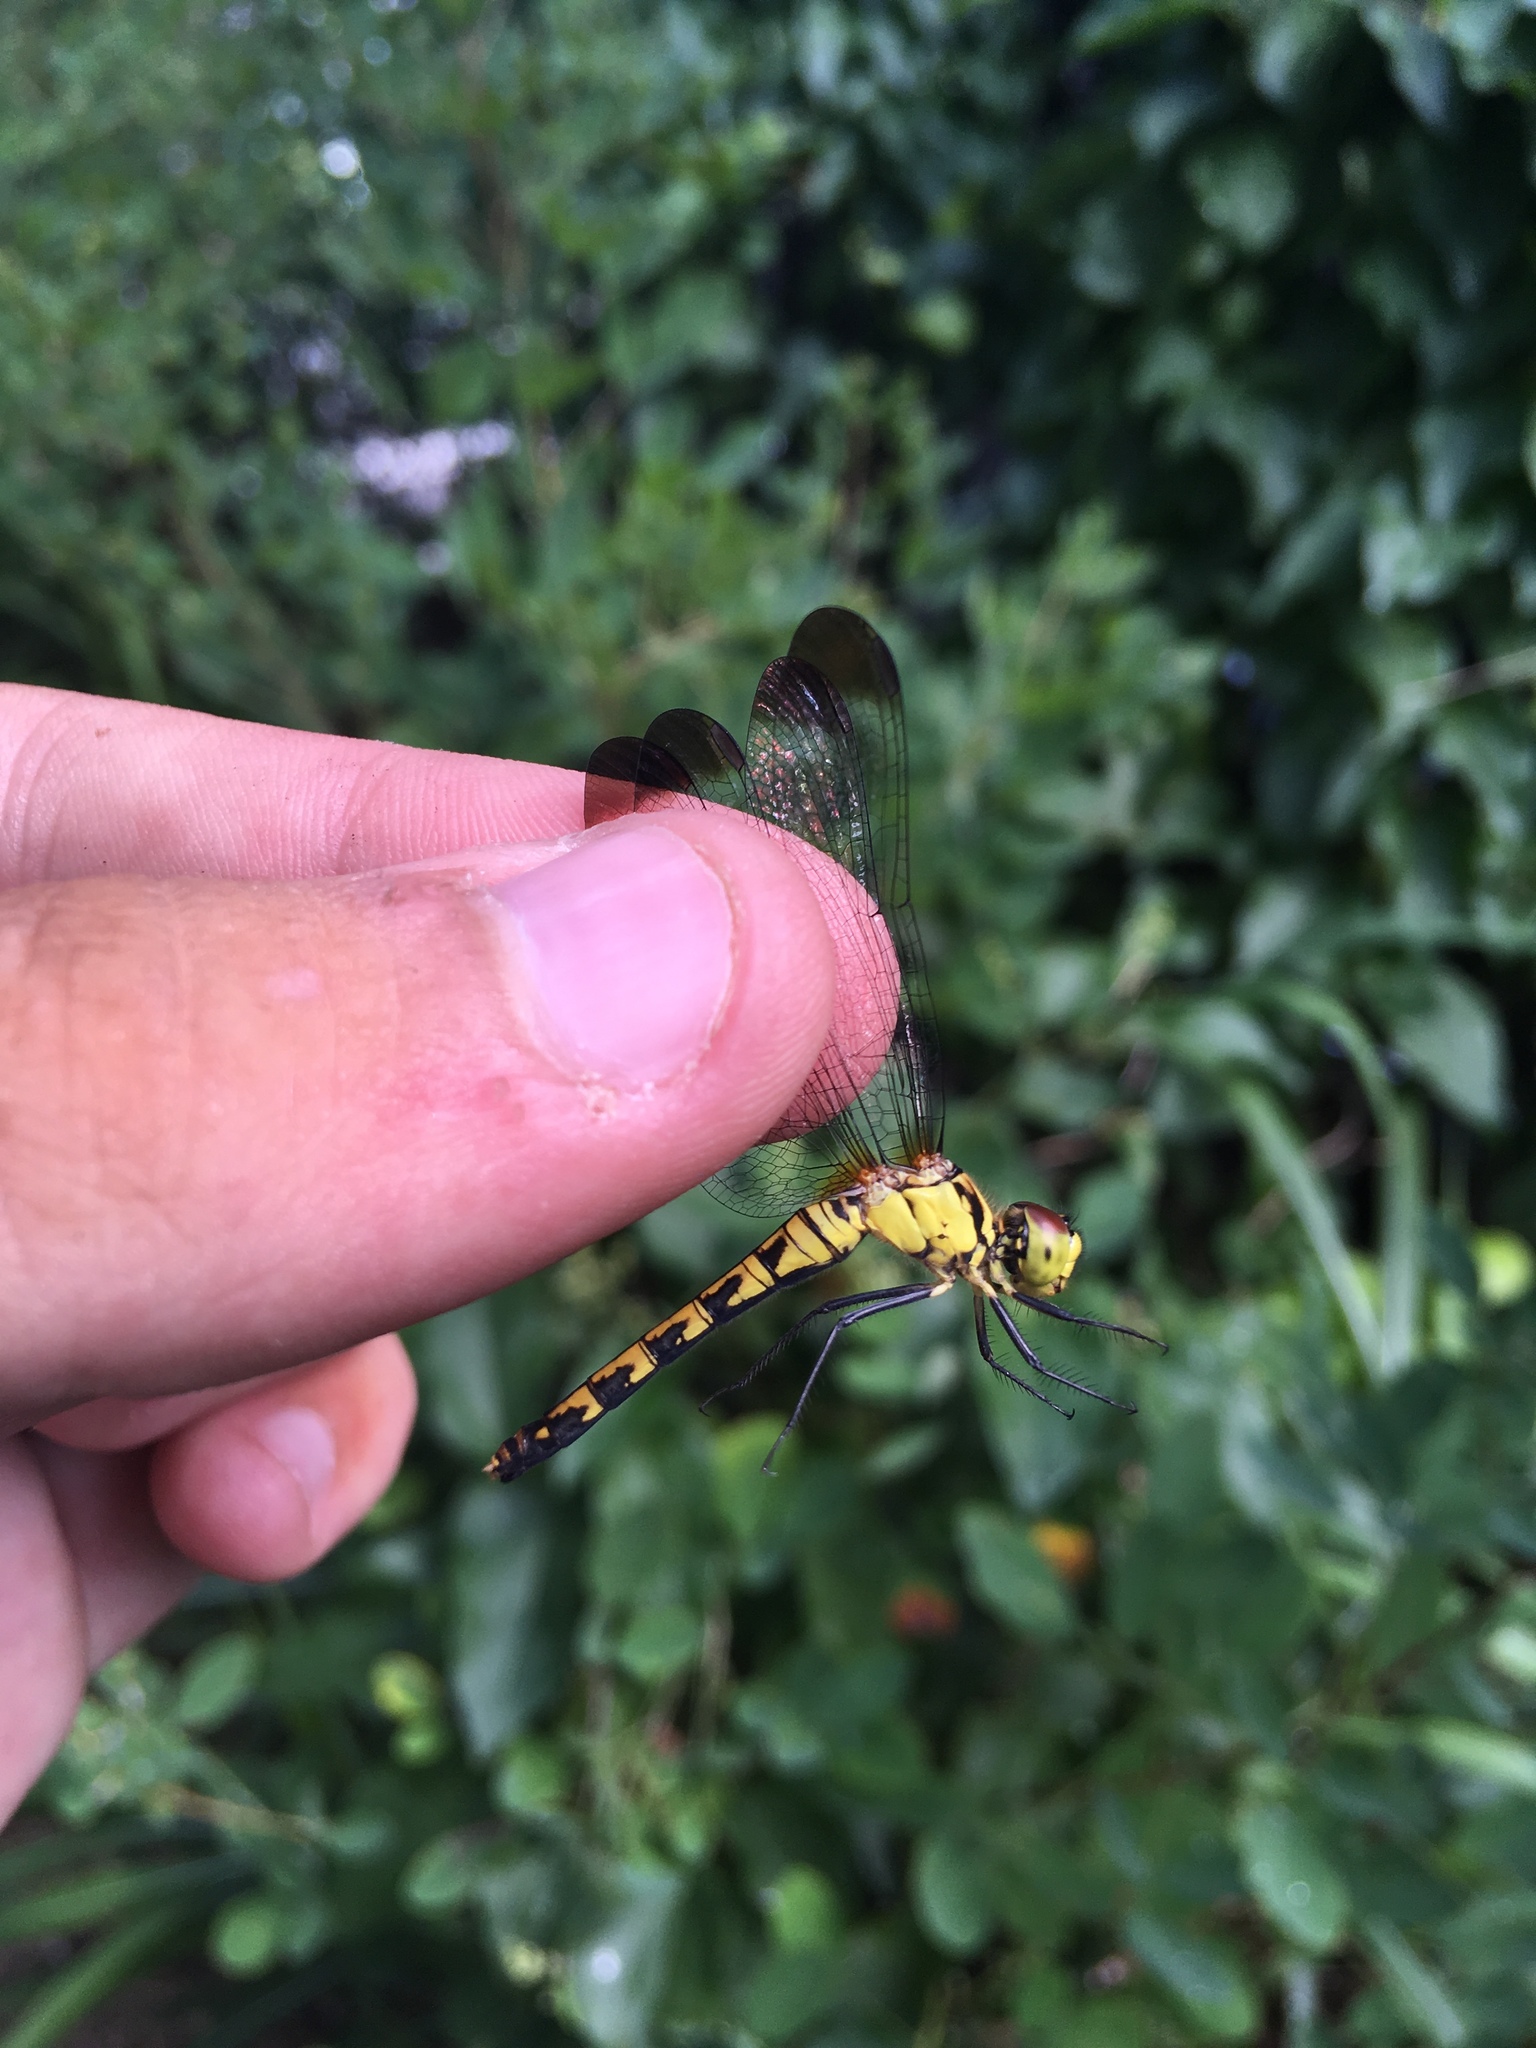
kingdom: Animalia
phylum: Arthropoda
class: Insecta
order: Odonata
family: Libellulidae
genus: Sympetrum
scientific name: Sympetrum eroticum
